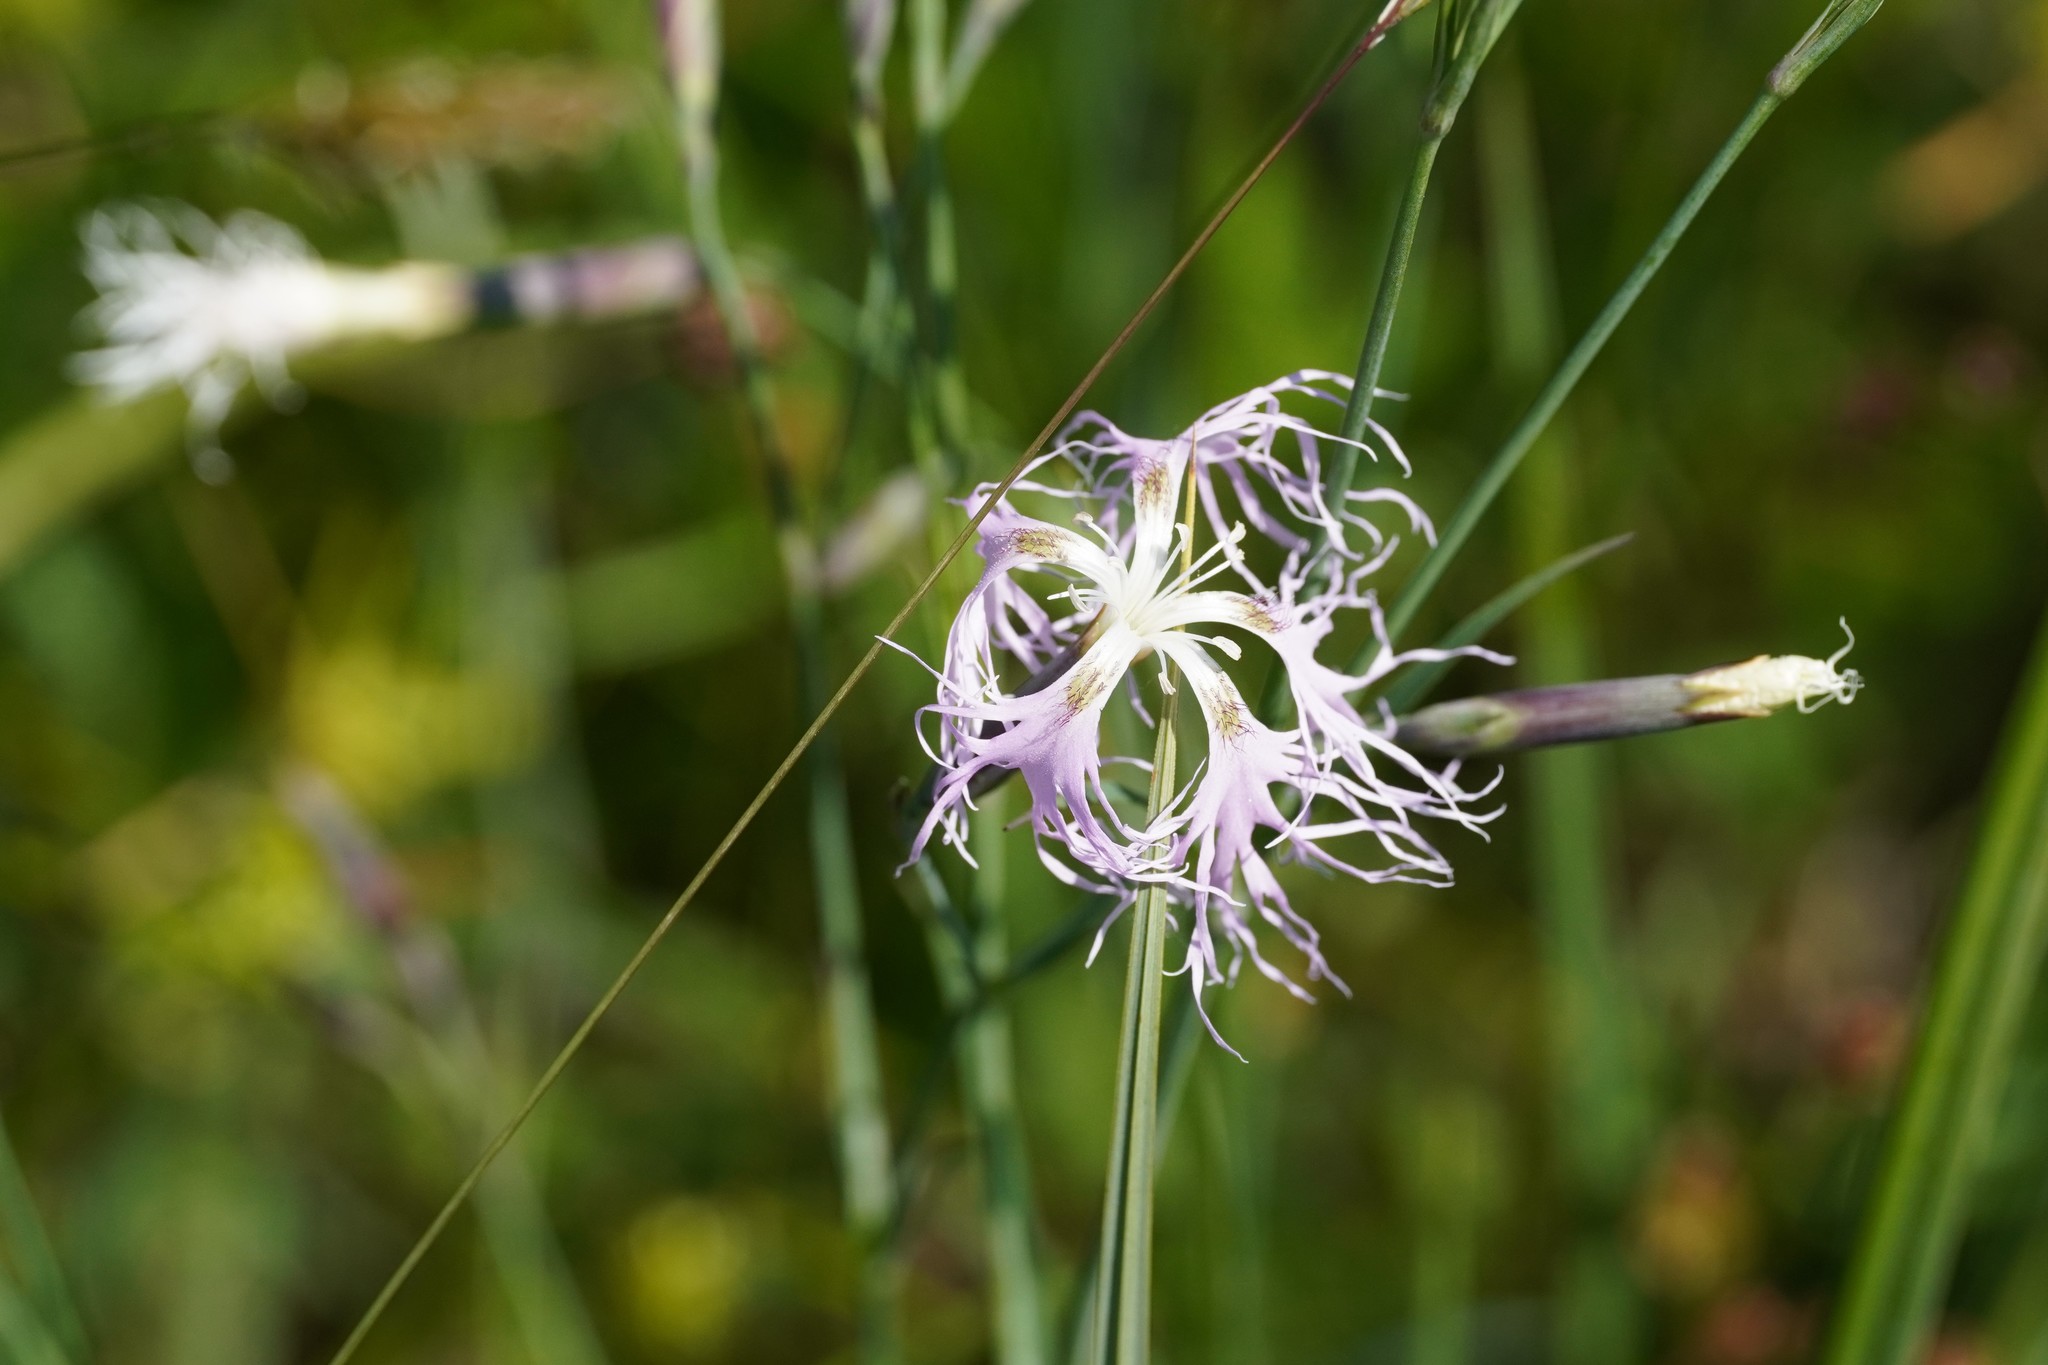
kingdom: Plantae
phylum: Tracheophyta
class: Magnoliopsida
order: Caryophyllales
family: Caryophyllaceae
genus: Dianthus
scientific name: Dianthus superbus
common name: Fringed pink
